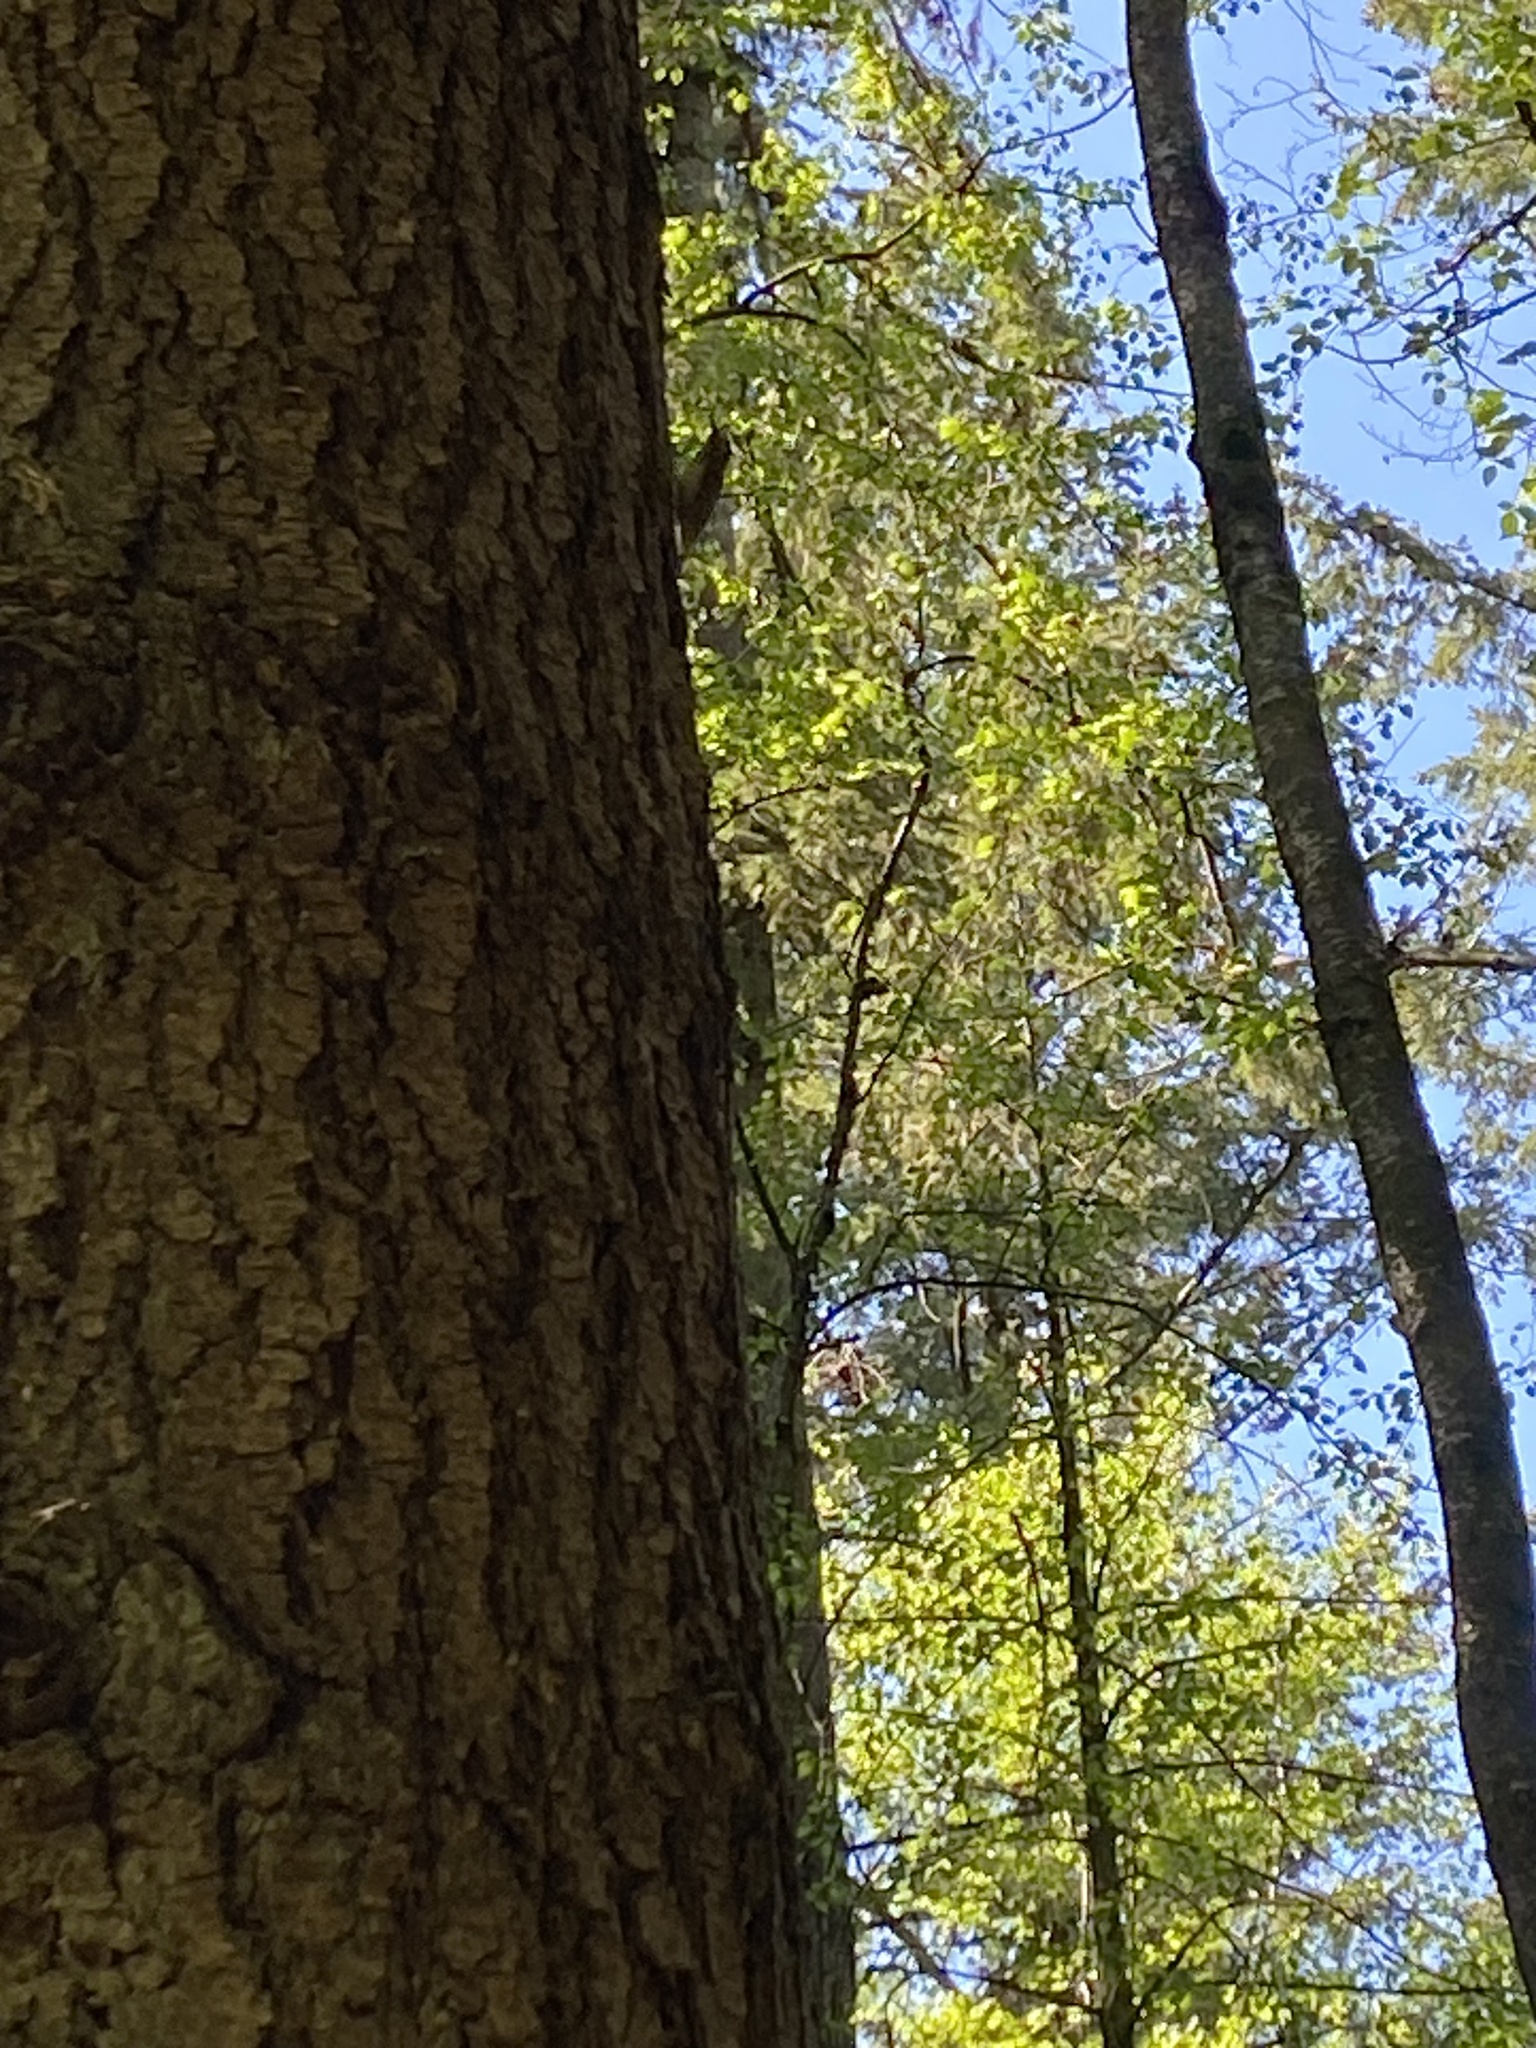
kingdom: Animalia
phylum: Chordata
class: Aves
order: Passeriformes
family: Certhiidae
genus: Certhia
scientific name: Certhia americana
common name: Brown creeper
